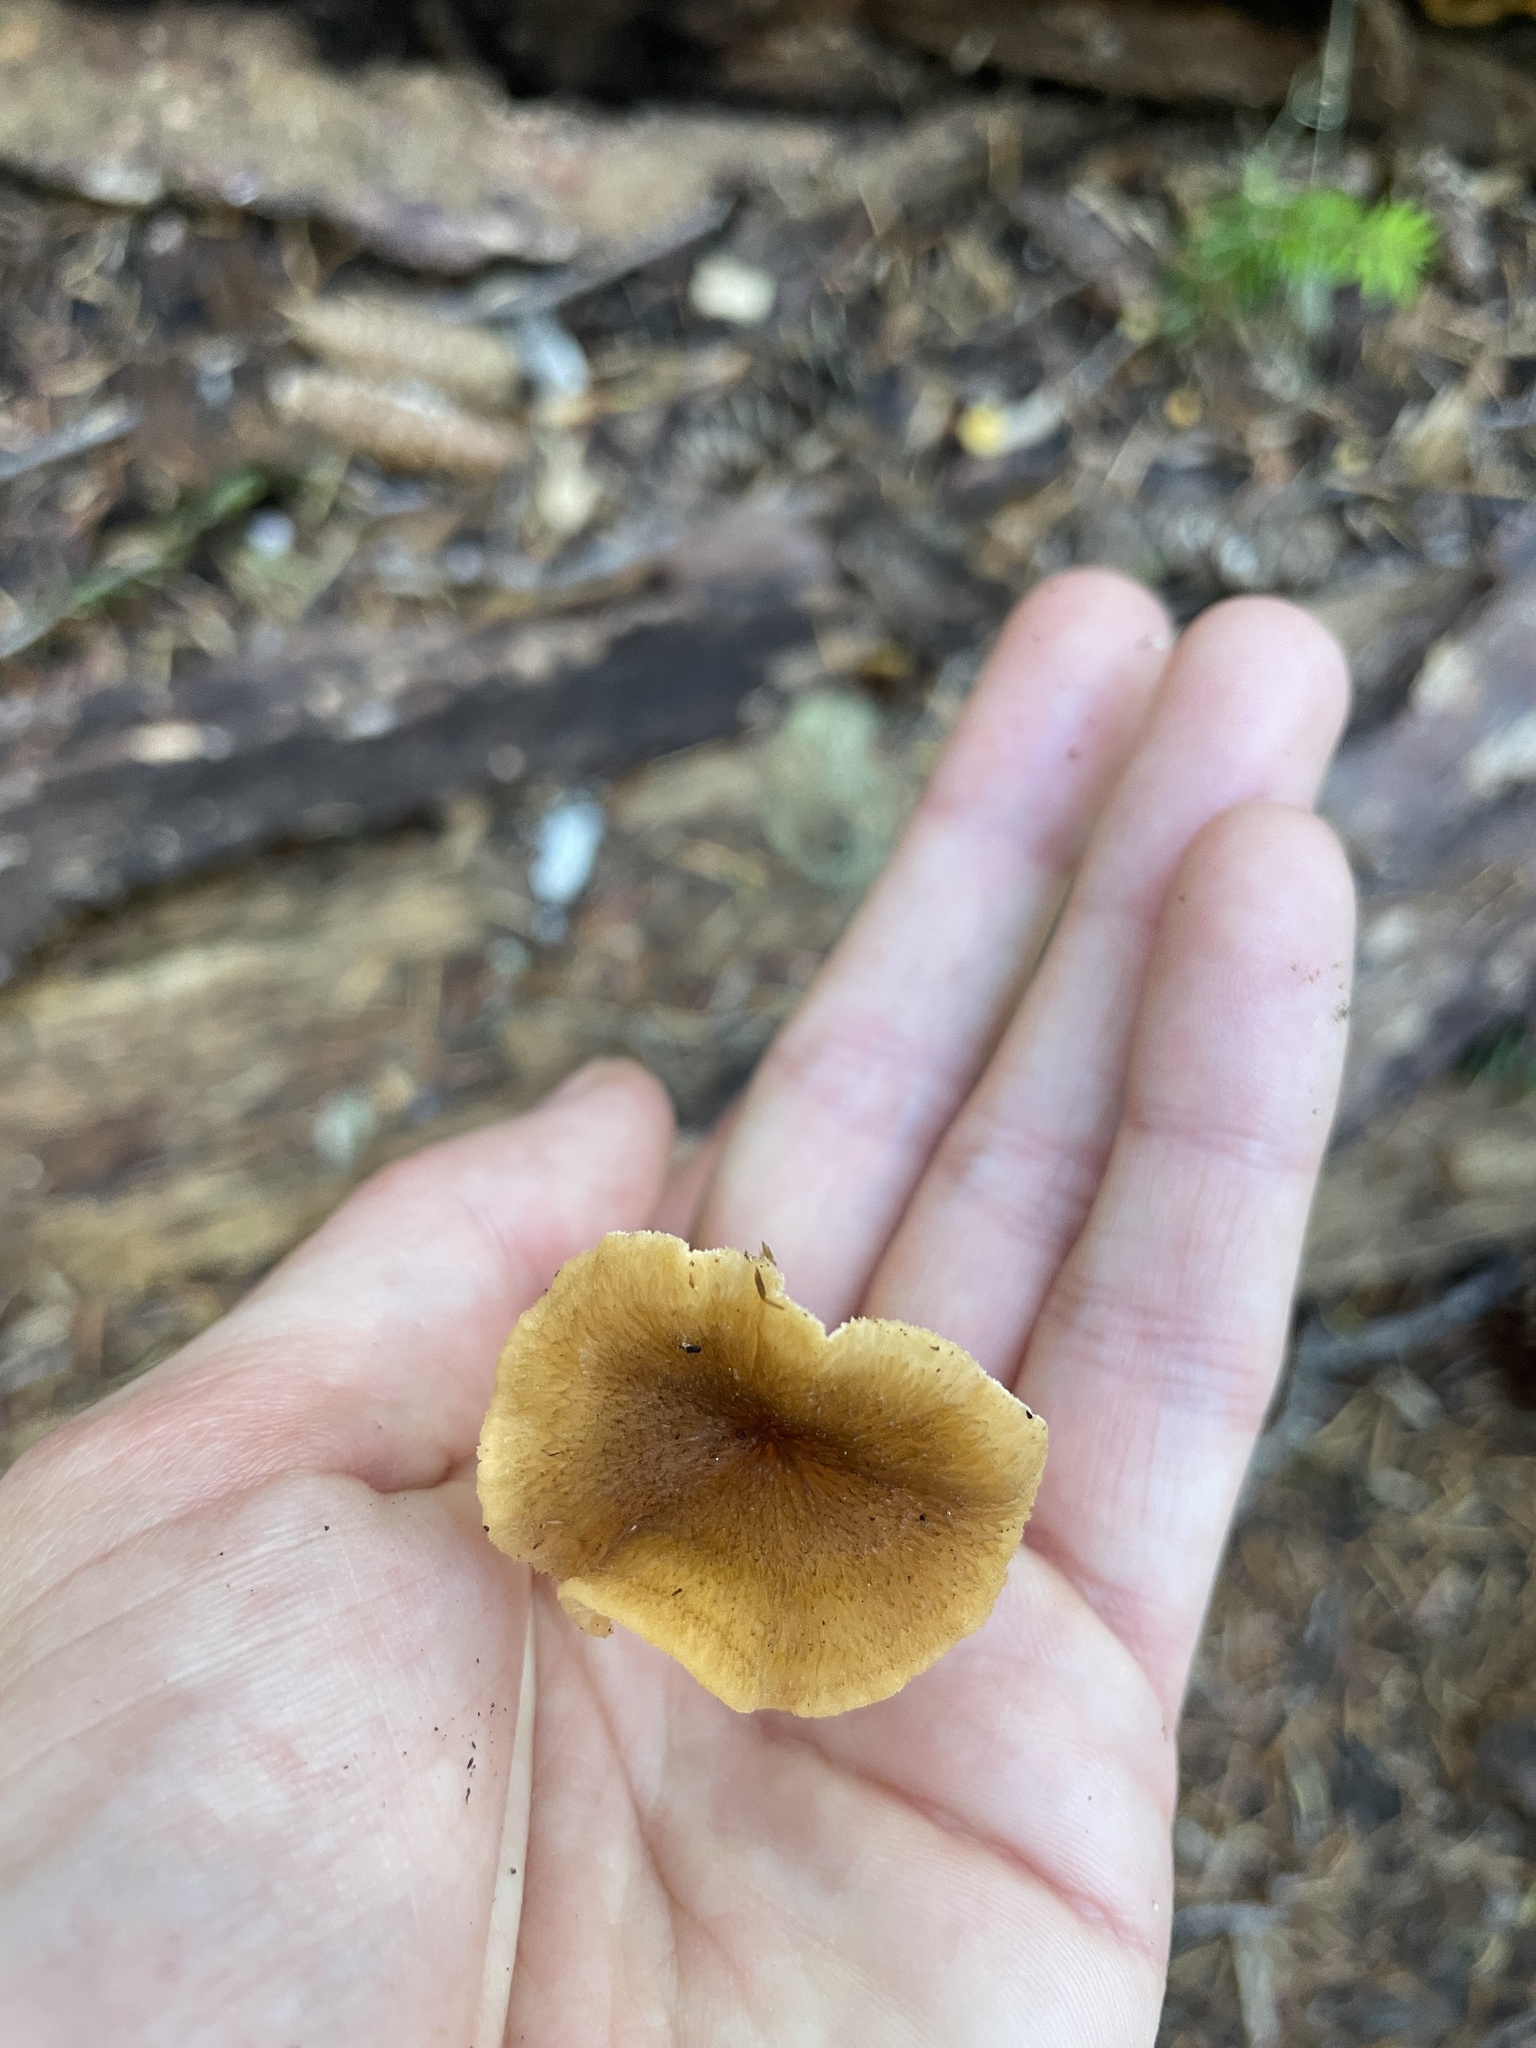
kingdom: Fungi
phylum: Basidiomycota
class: Agaricomycetes
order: Cantharellales
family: Hydnaceae
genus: Craterellus
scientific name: Craterellus tubaeformis
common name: Yellowfoot
